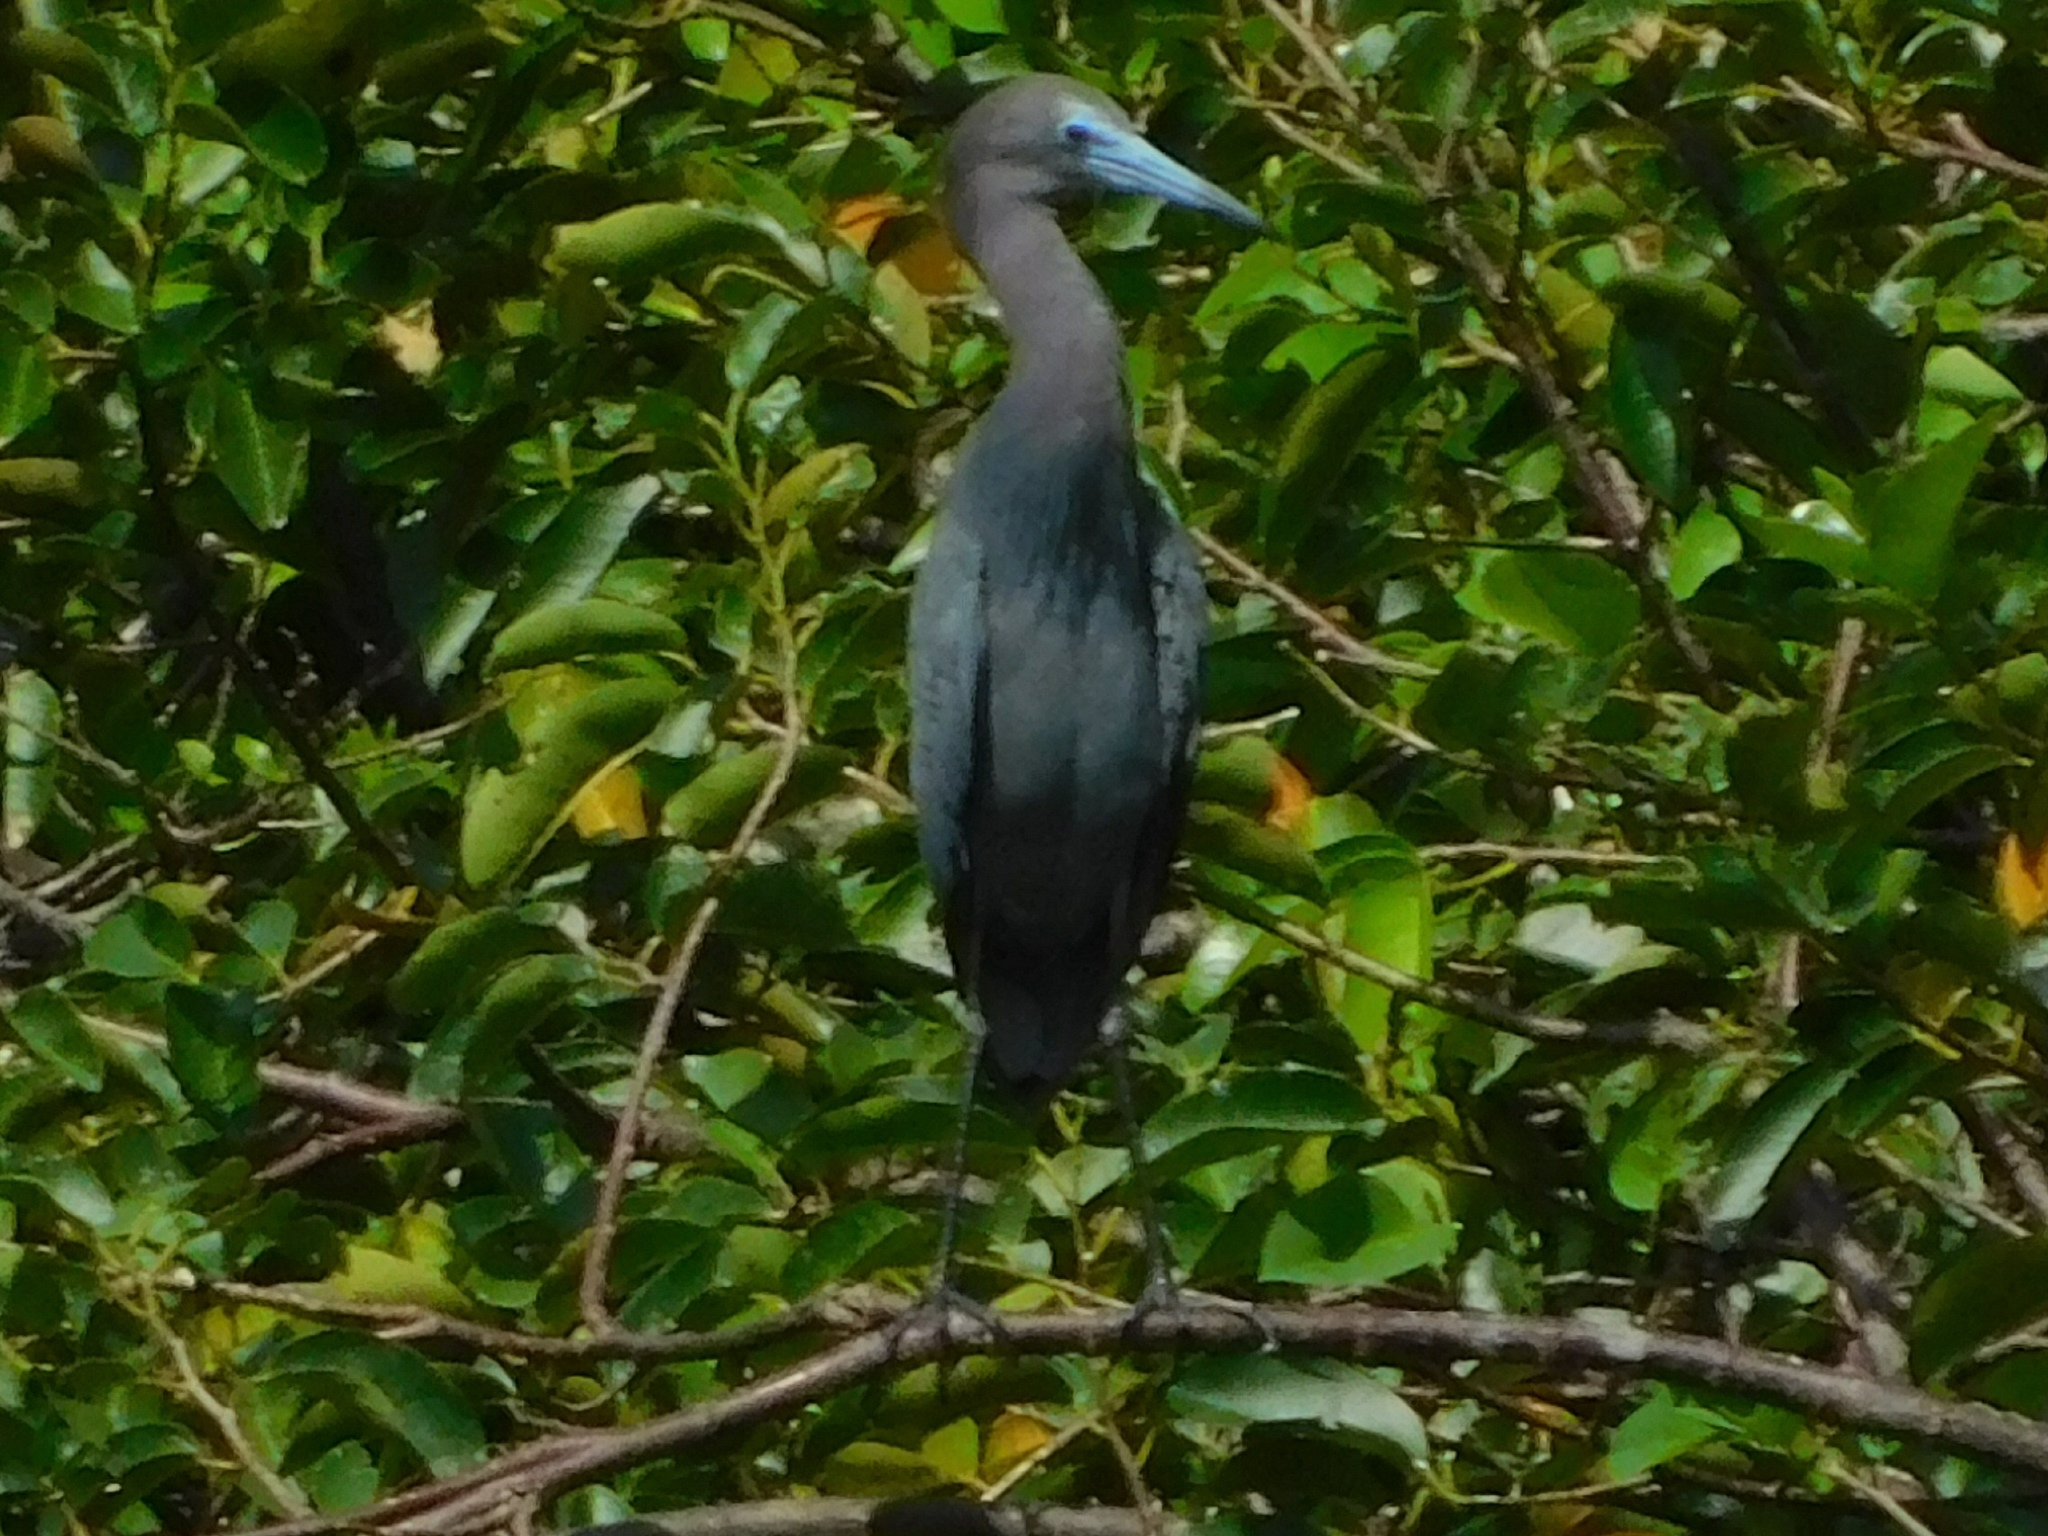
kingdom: Animalia
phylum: Chordata
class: Aves
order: Pelecaniformes
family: Ardeidae
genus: Egretta
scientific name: Egretta caerulea
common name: Little blue heron
